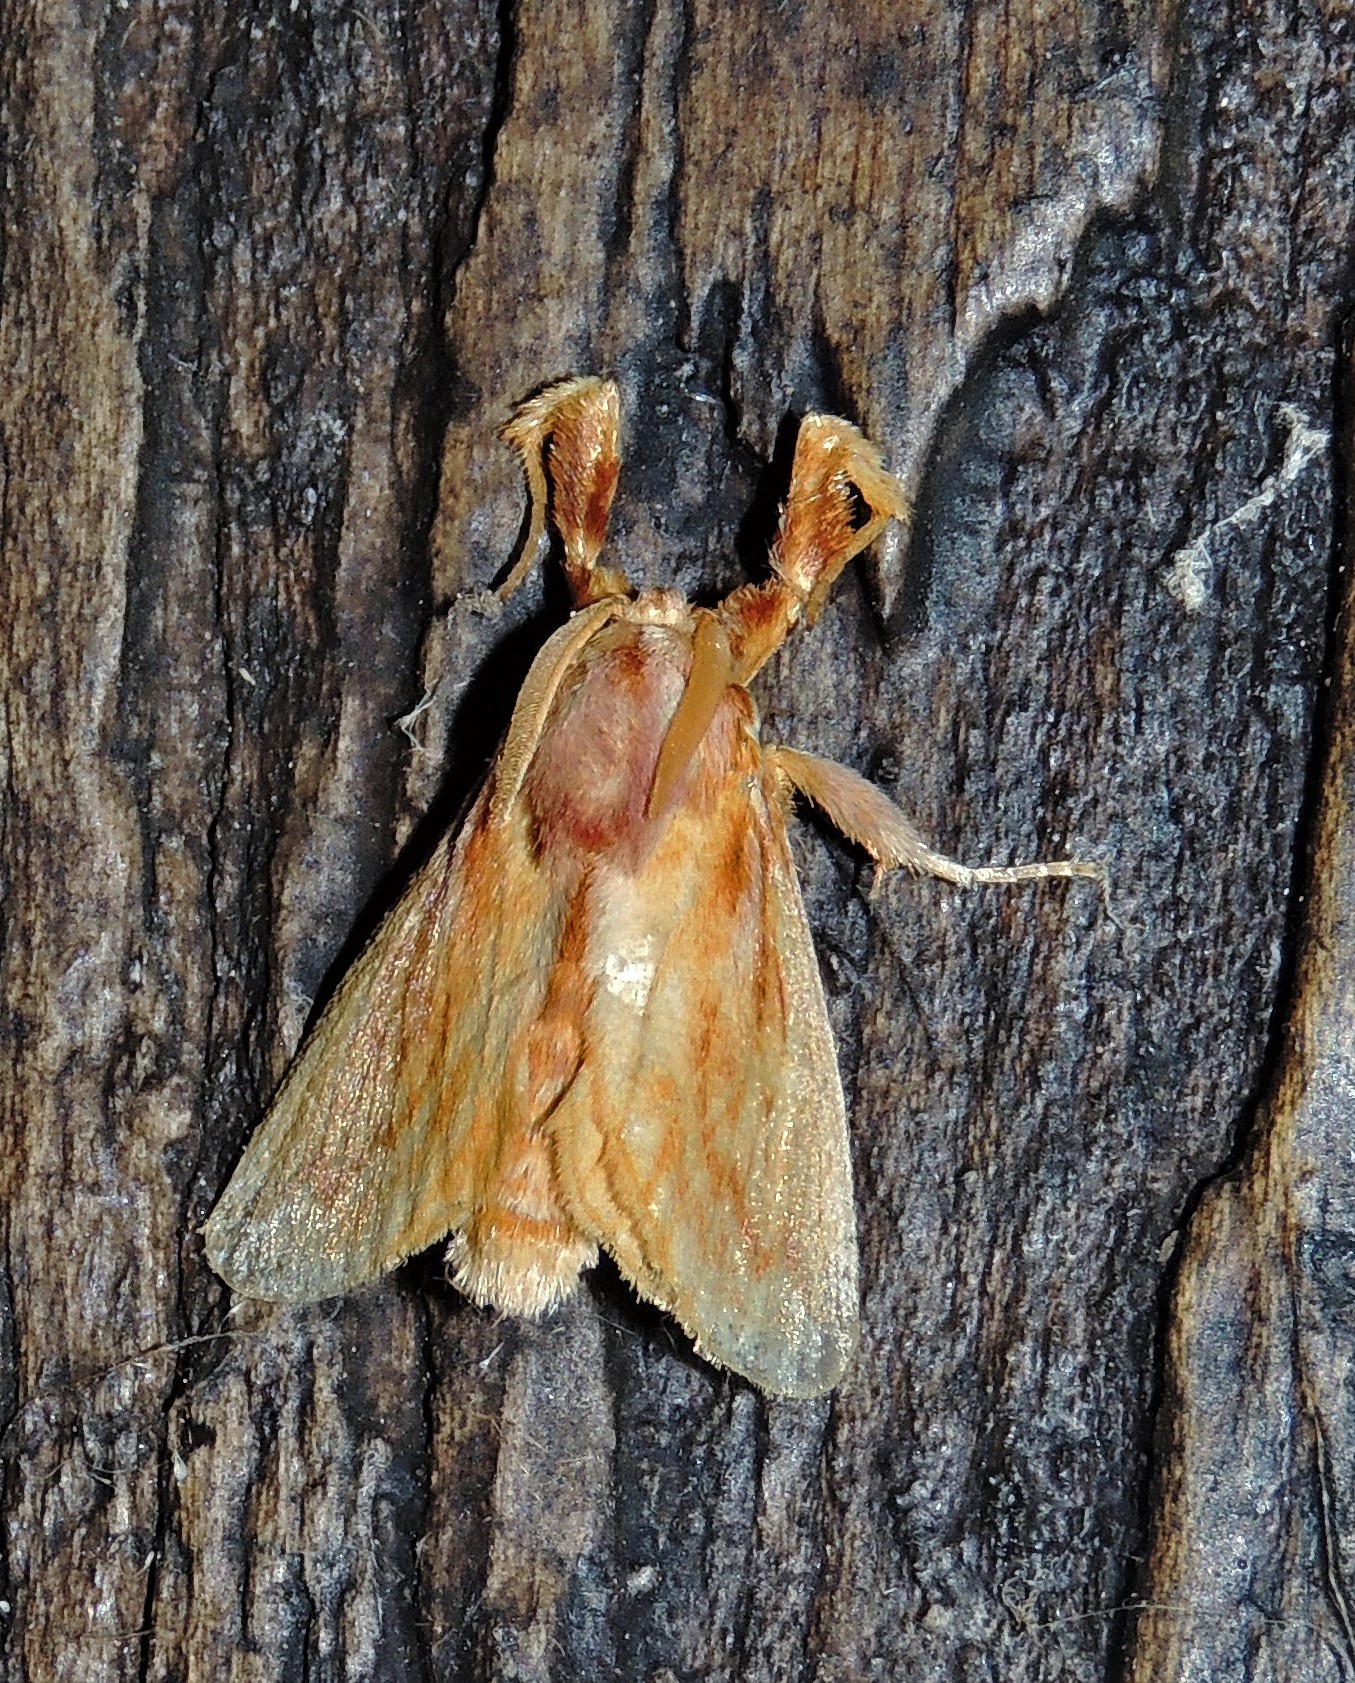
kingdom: Animalia
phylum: Arthropoda
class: Insecta
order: Lepidoptera
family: Limacodidae
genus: Perola
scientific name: Perola villosipes
